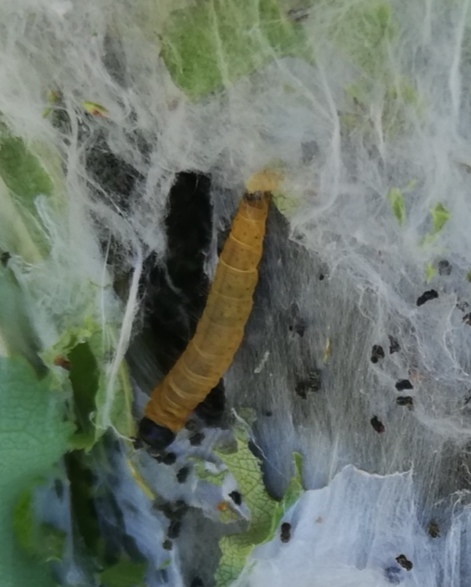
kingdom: Animalia
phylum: Arthropoda
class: Insecta
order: Lepidoptera
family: Tortricidae
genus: Archips
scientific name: Archips cerasivorana
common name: Uglynest caterpillar
